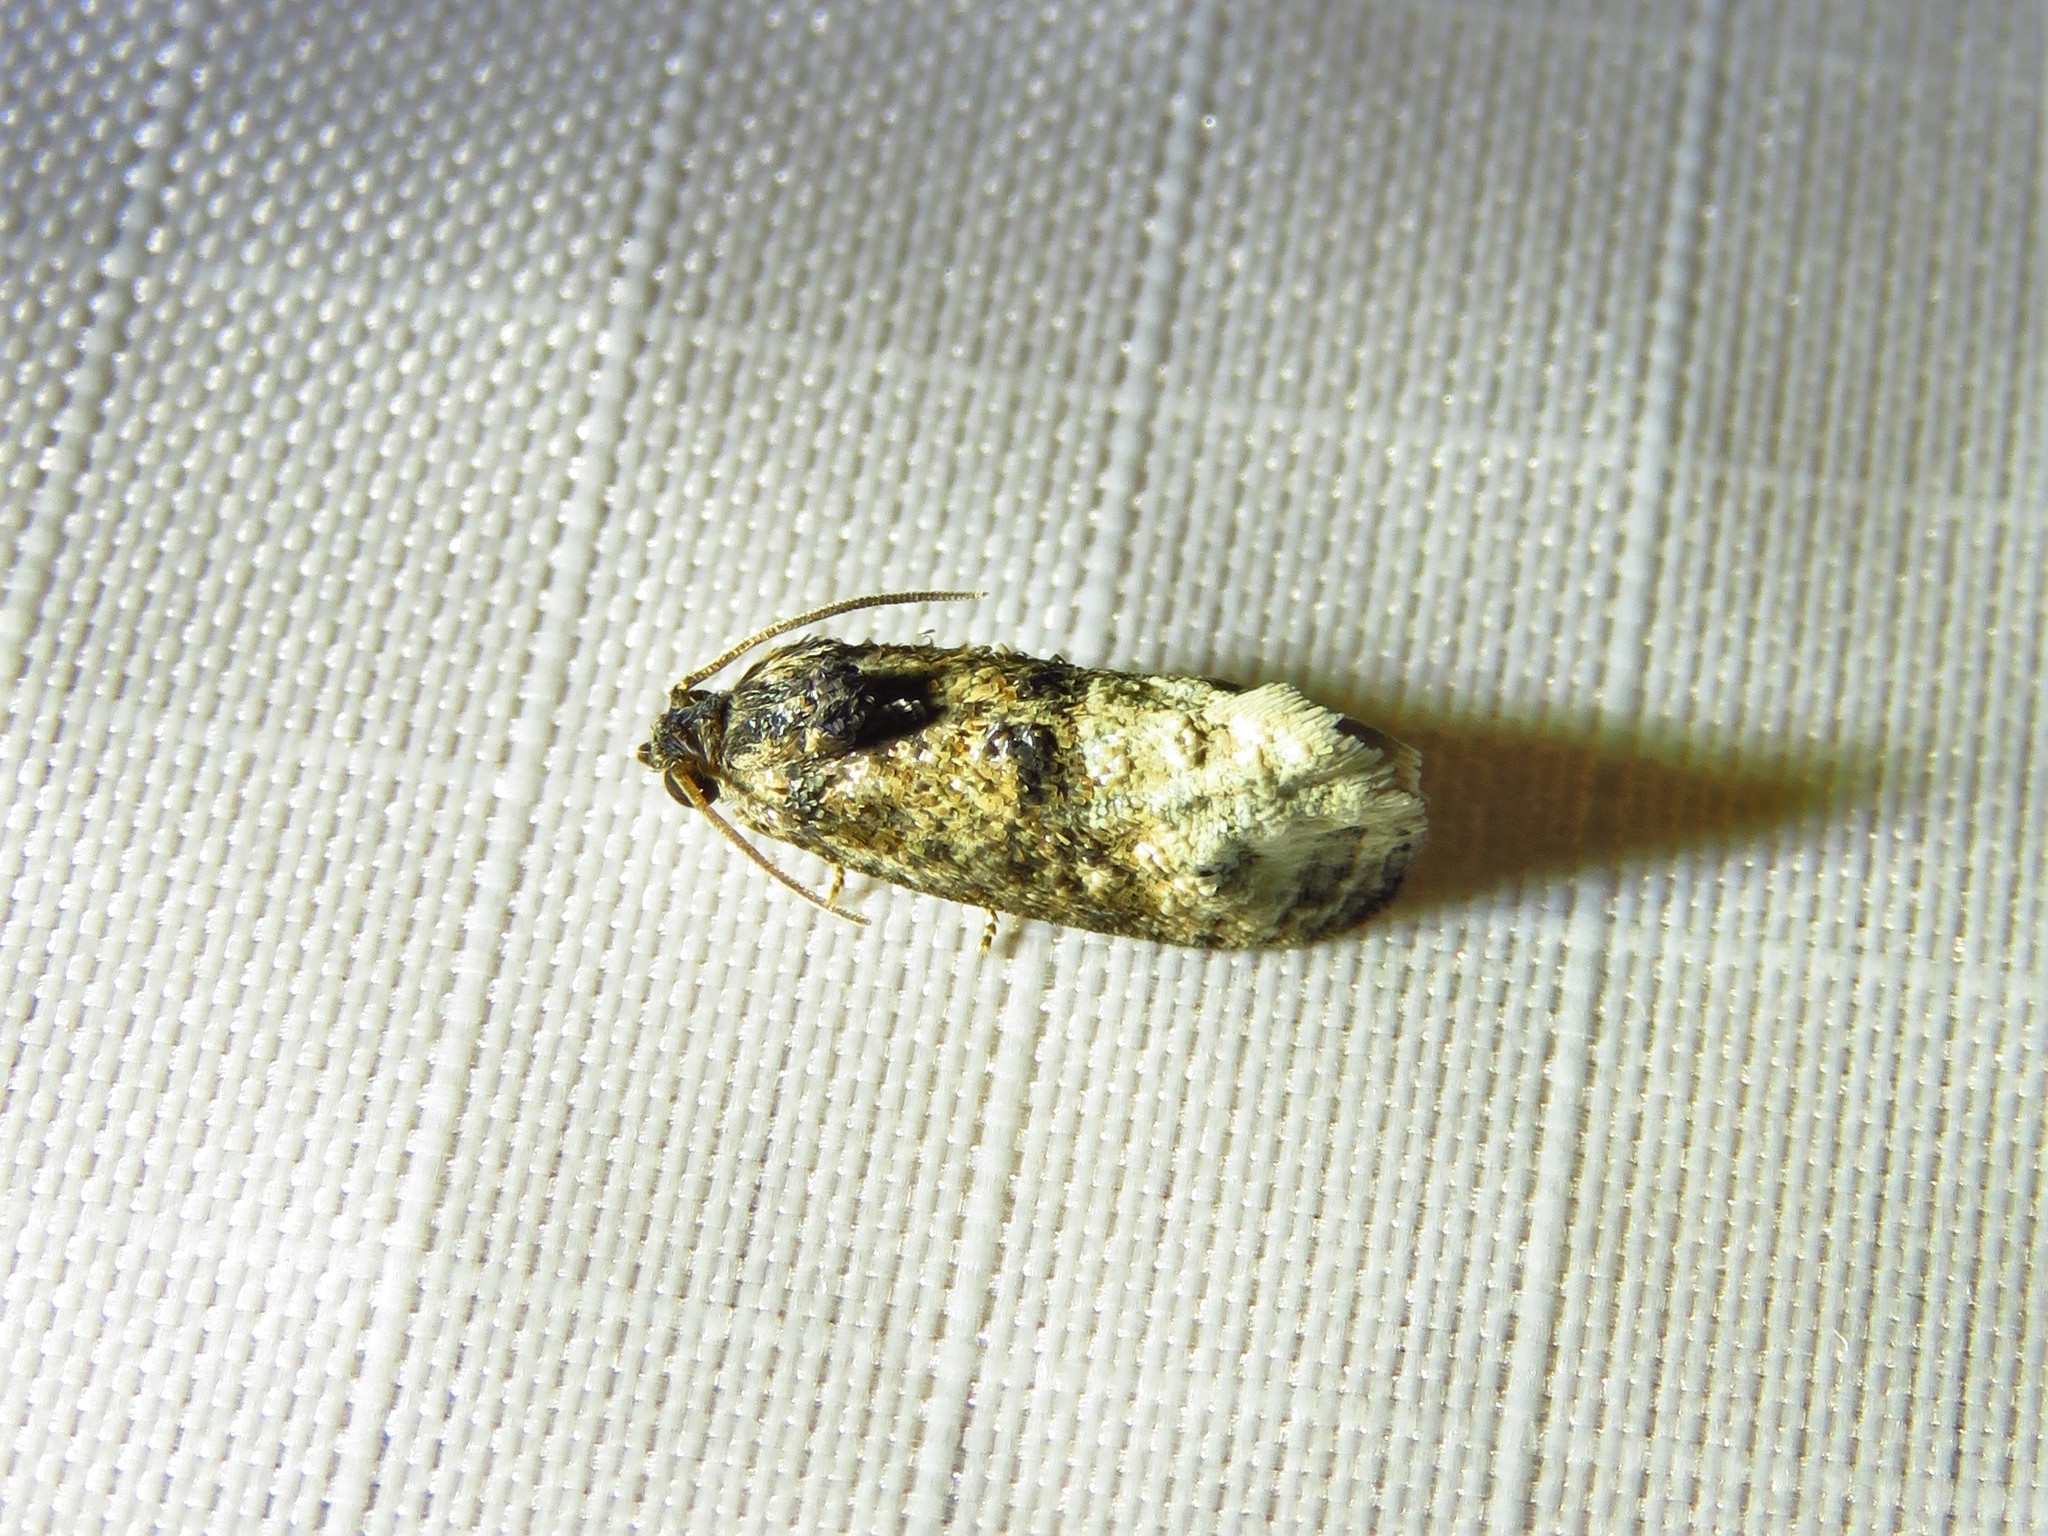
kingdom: Animalia
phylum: Arthropoda
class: Insecta
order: Lepidoptera
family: Tortricidae
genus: Ecdytolopha
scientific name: Ecdytolopha mana
